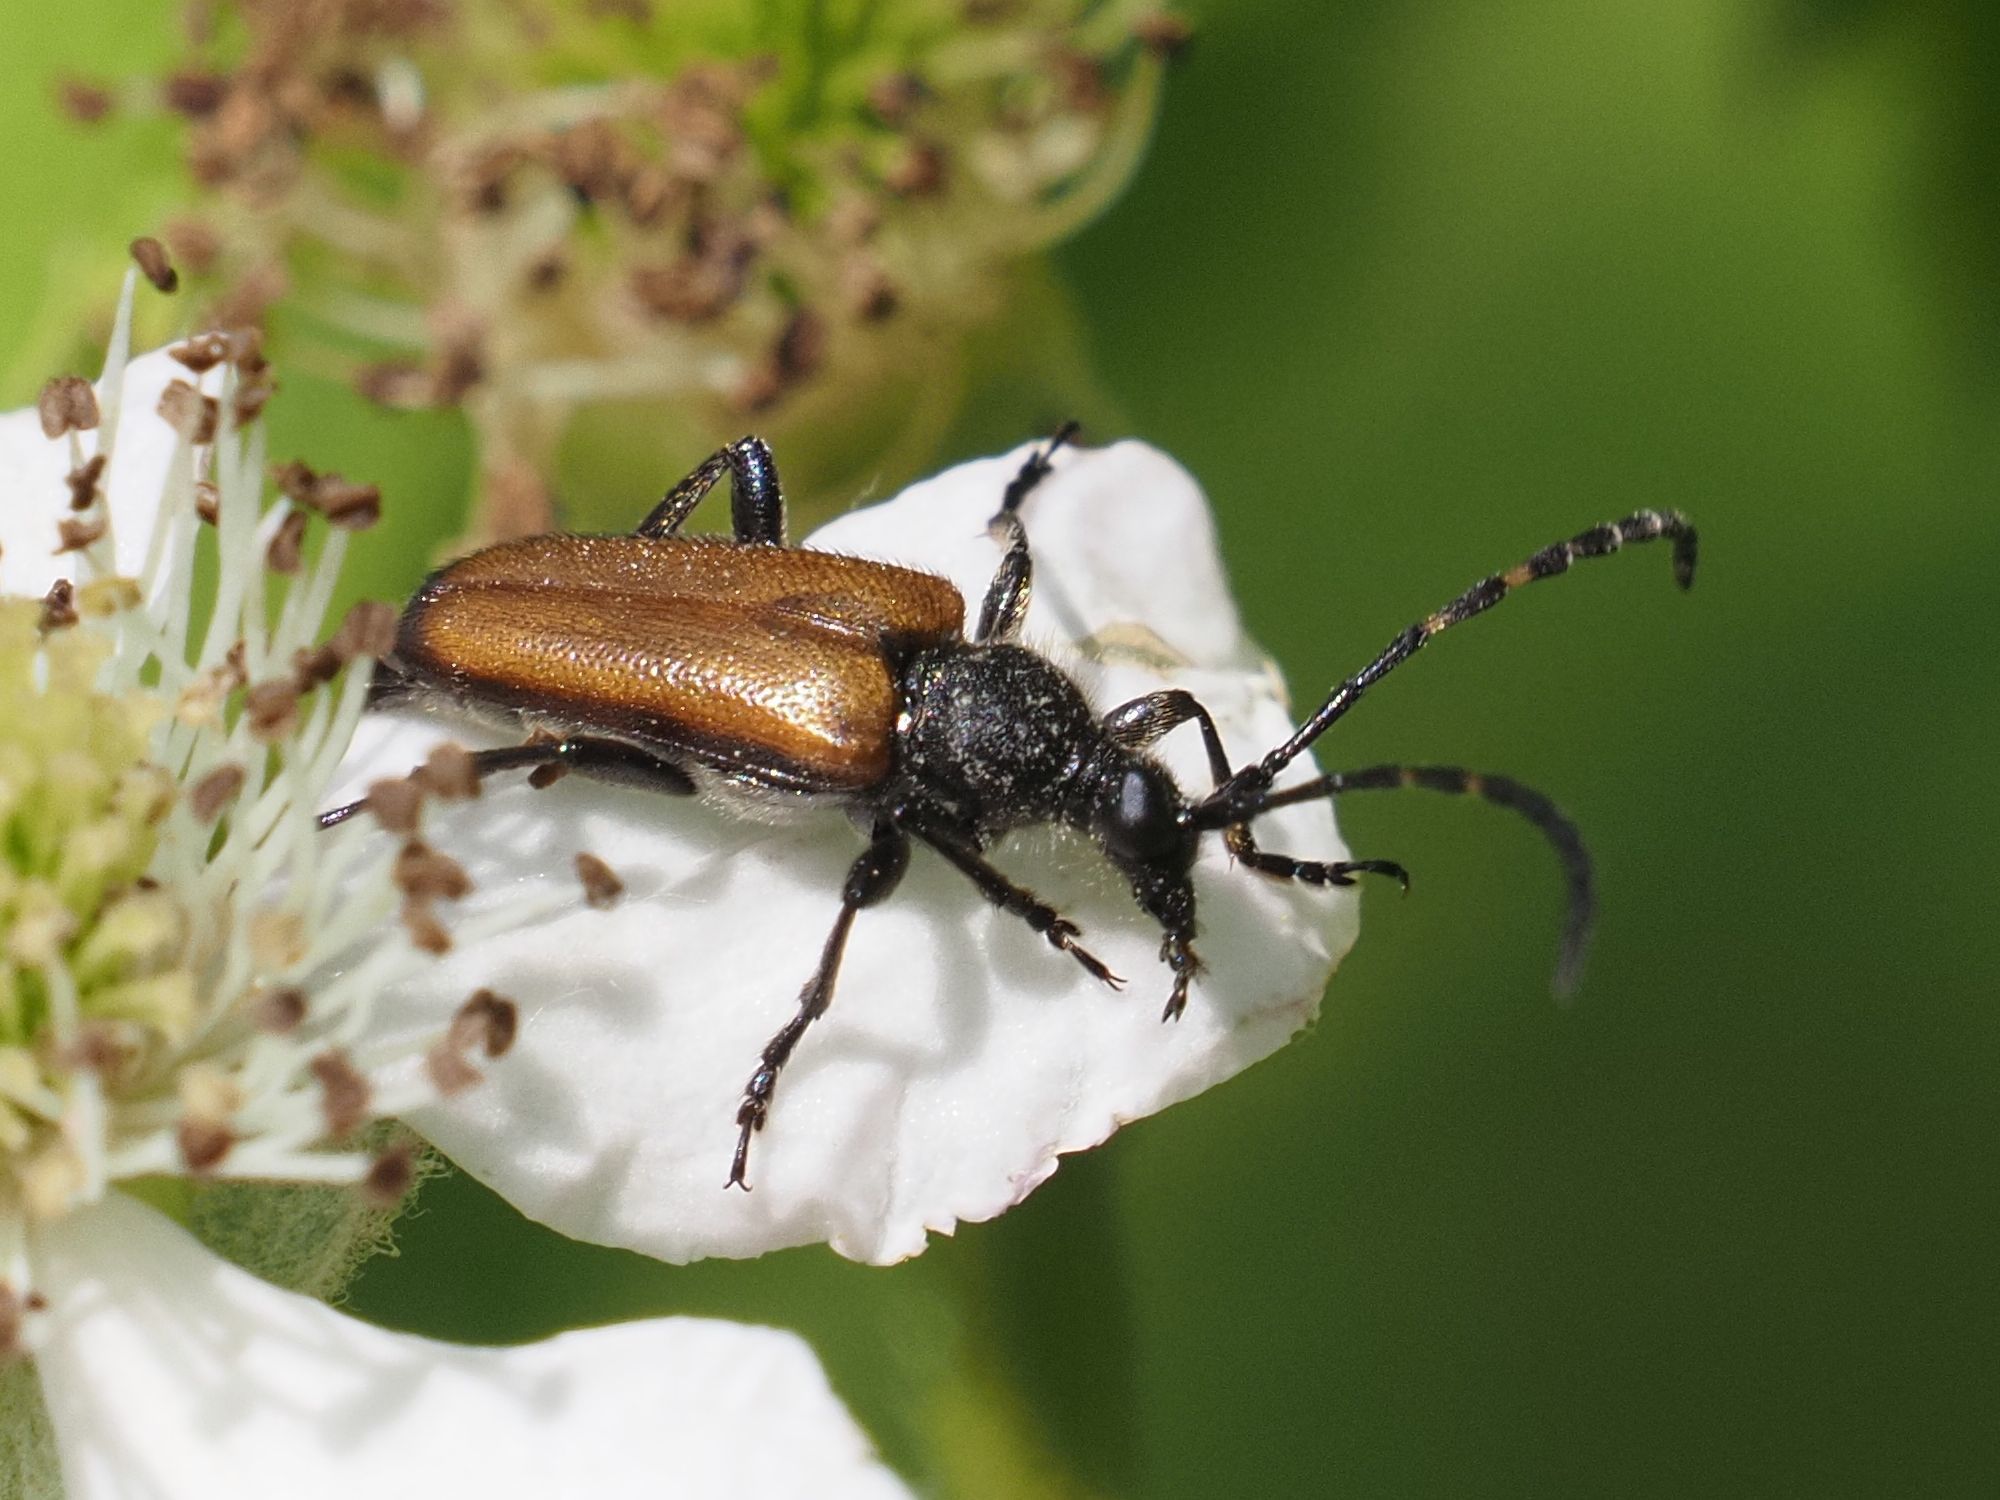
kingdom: Animalia
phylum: Arthropoda
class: Insecta
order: Coleoptera
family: Cerambycidae
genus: Paracorymbia
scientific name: Paracorymbia maculicornis
